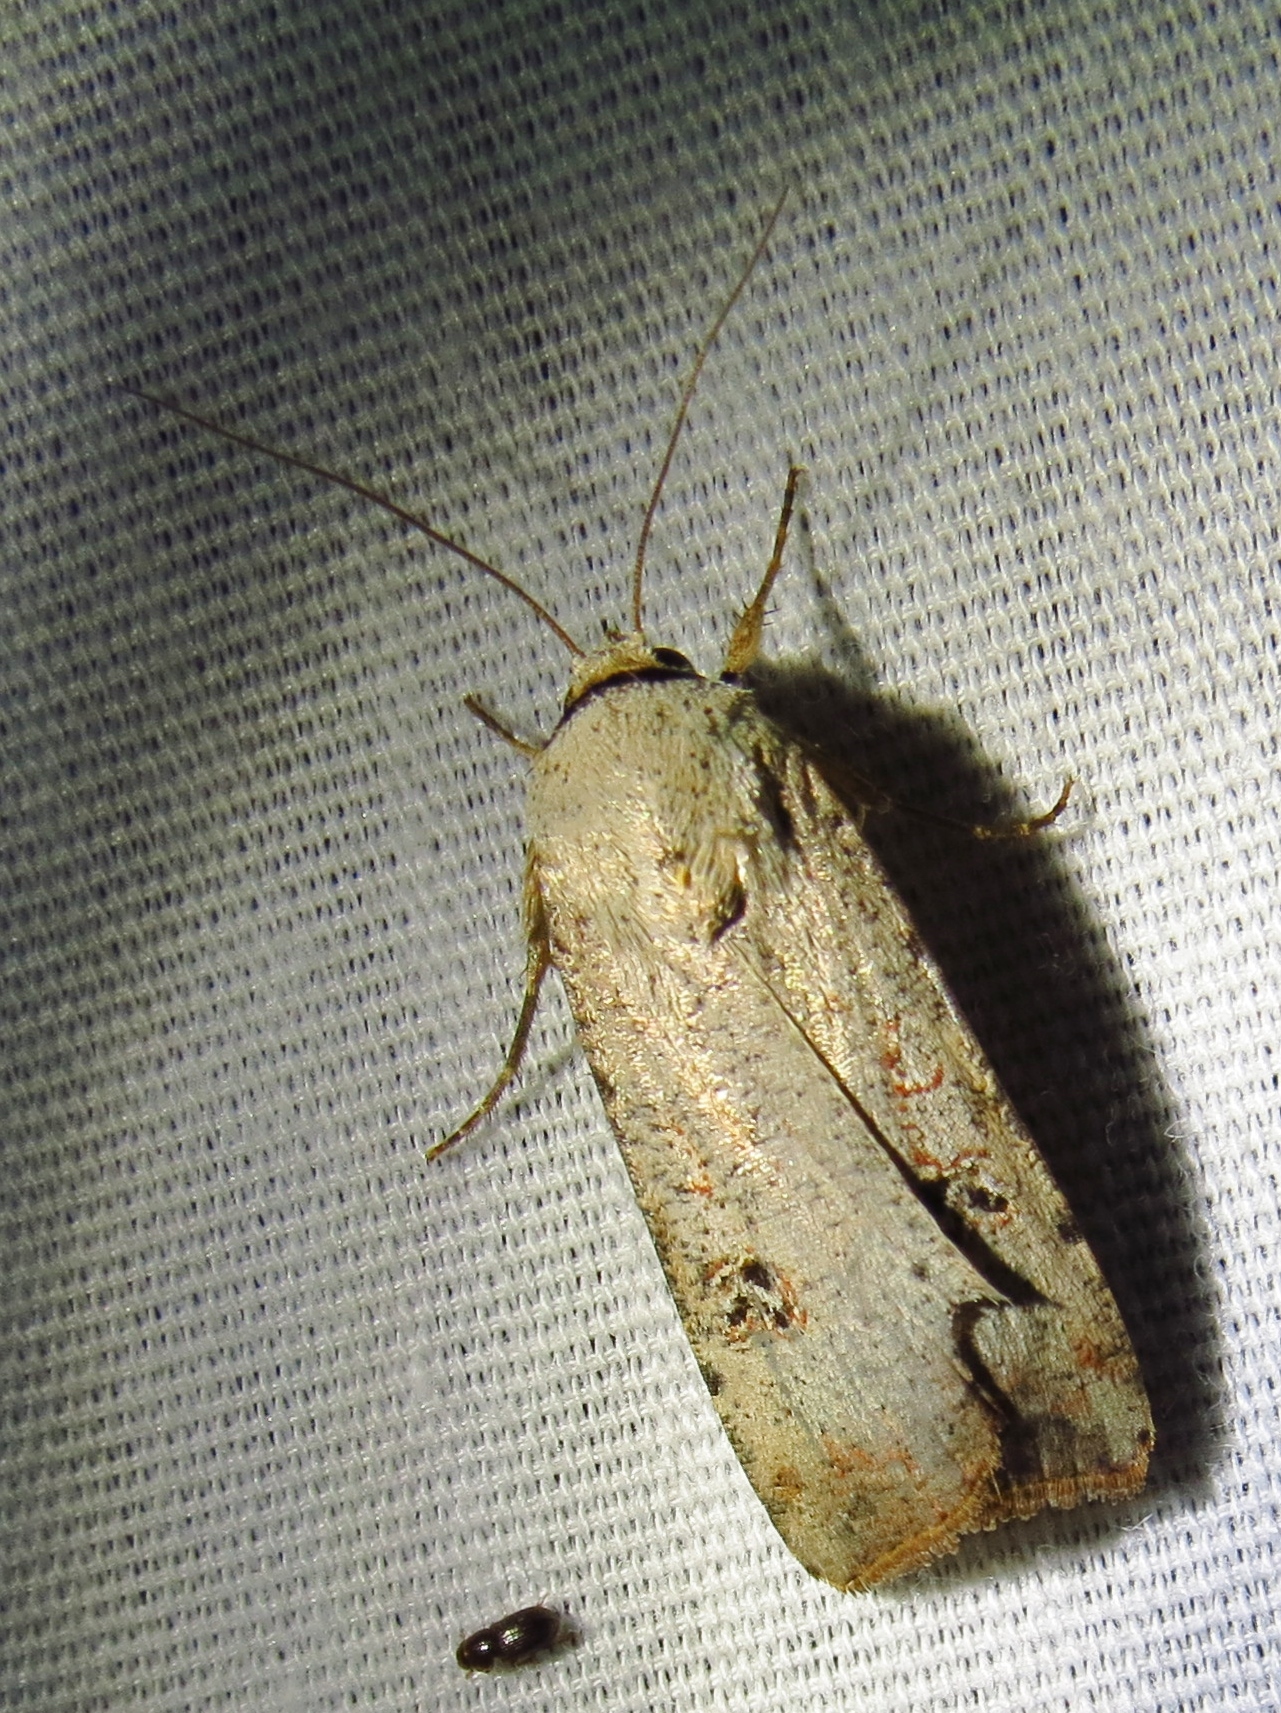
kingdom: Animalia
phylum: Arthropoda
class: Insecta
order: Lepidoptera
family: Noctuidae
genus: Anicla
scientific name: Anicla infecta
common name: Green cutworm
